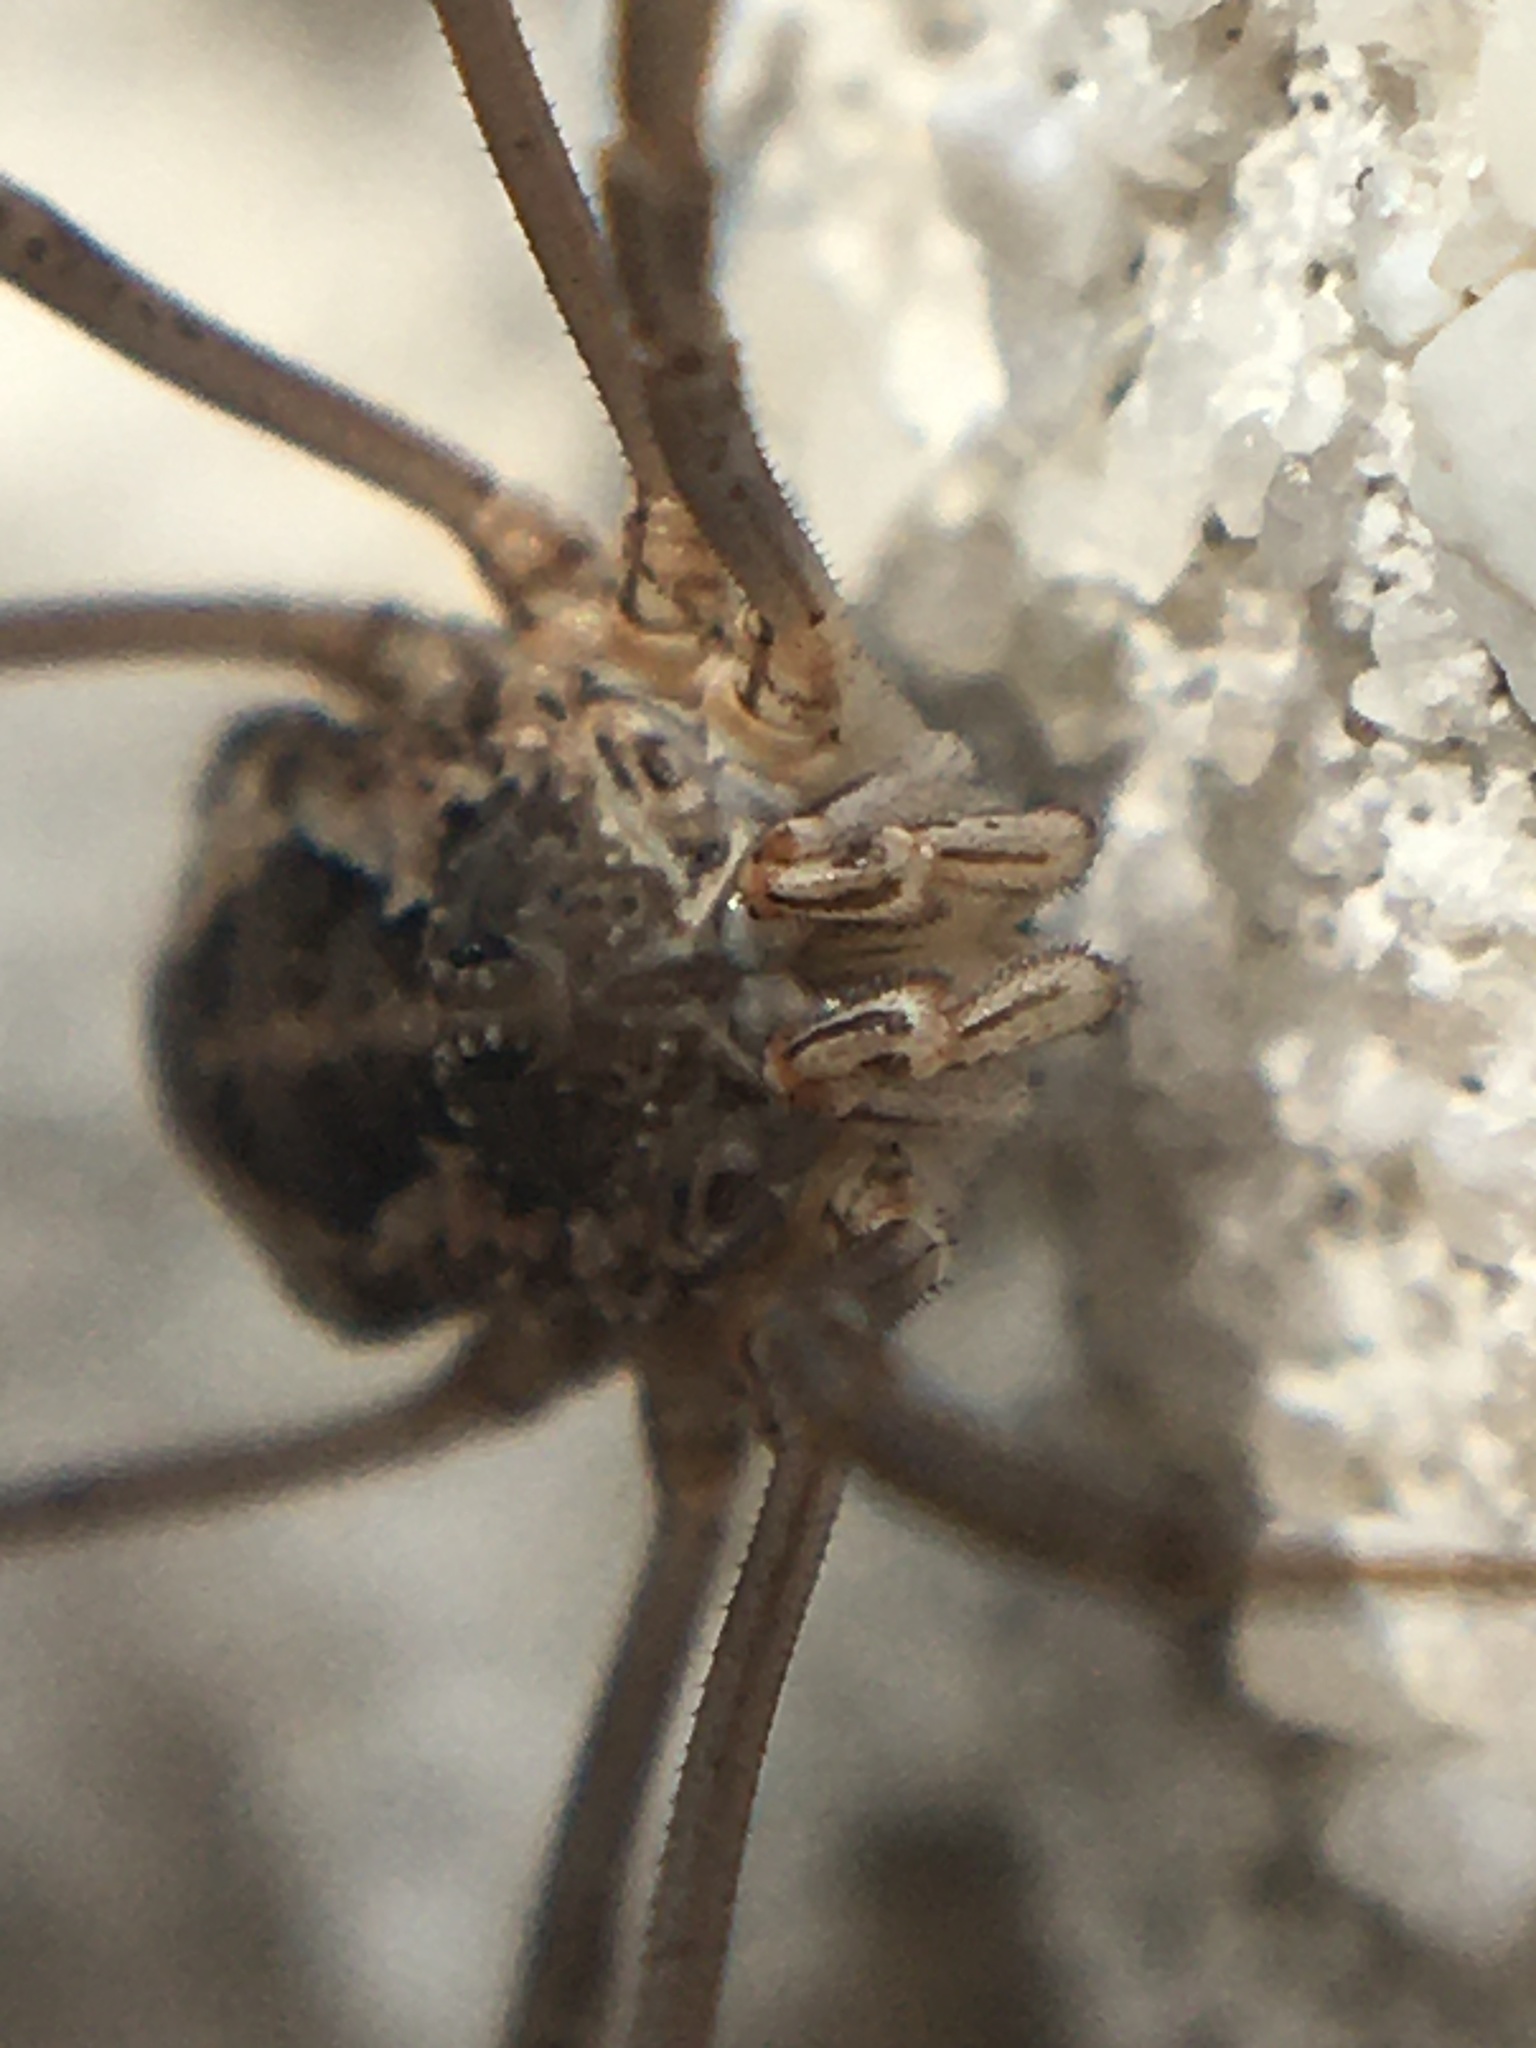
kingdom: Animalia
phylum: Arthropoda
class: Arachnida
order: Opiliones
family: Phalangiidae
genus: Phalangium
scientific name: Phalangium opilio
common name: Daddy longleg
